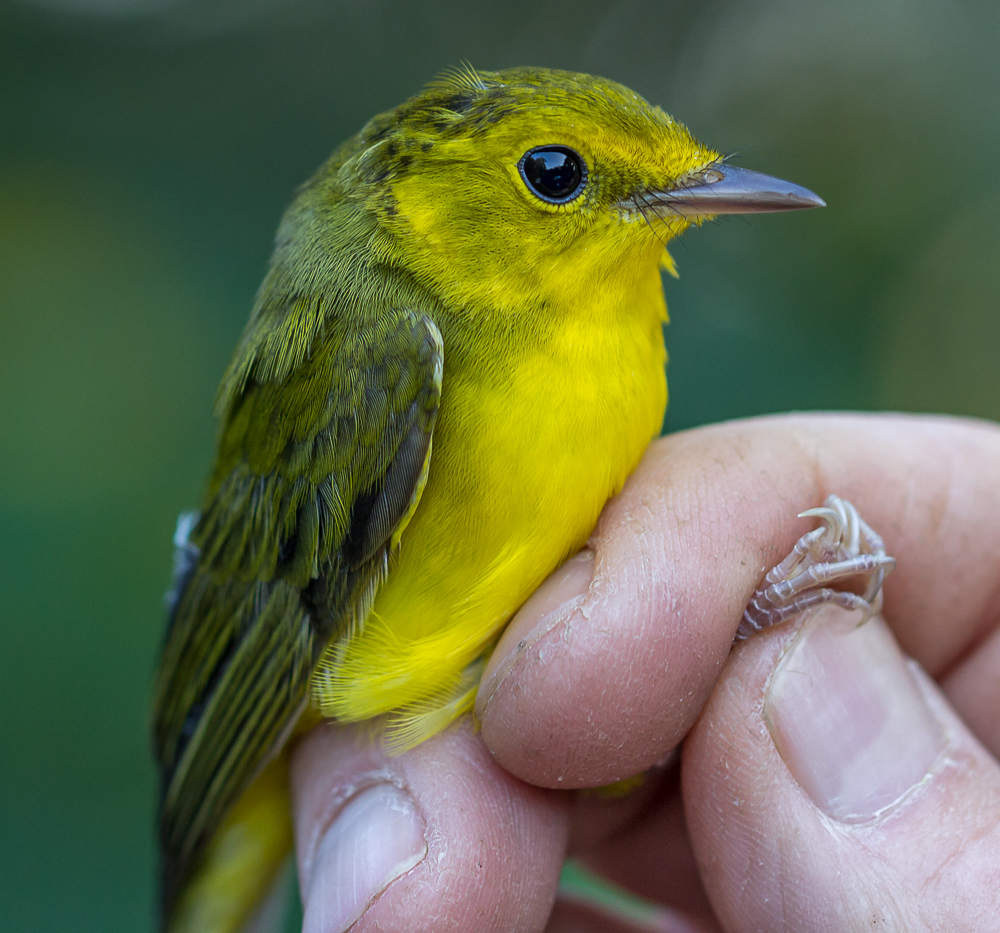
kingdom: Animalia
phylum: Chordata
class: Aves
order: Passeriformes
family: Parulidae
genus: Setophaga
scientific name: Setophaga citrina
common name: Hooded warbler
